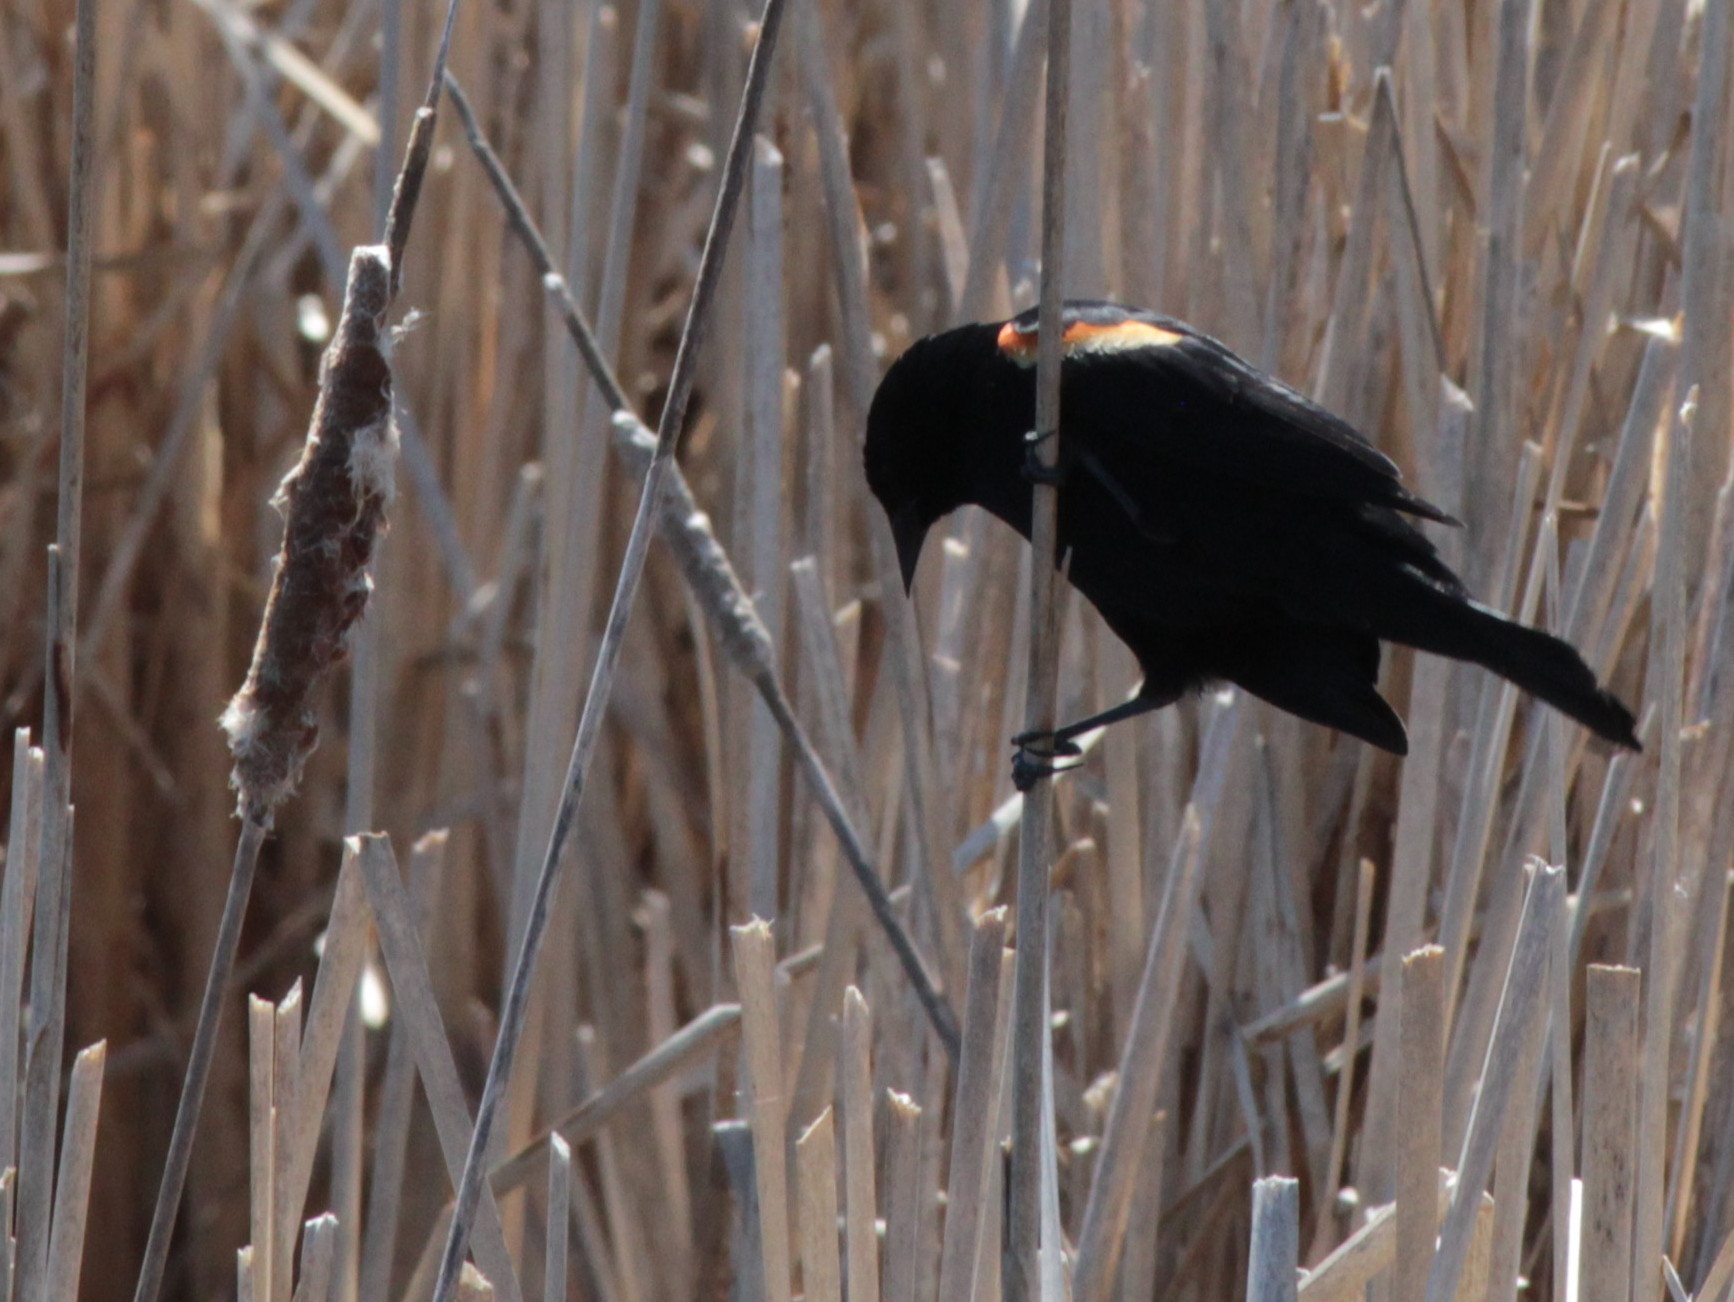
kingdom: Animalia
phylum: Chordata
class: Aves
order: Passeriformes
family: Icteridae
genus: Agelaius
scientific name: Agelaius phoeniceus
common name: Red-winged blackbird
